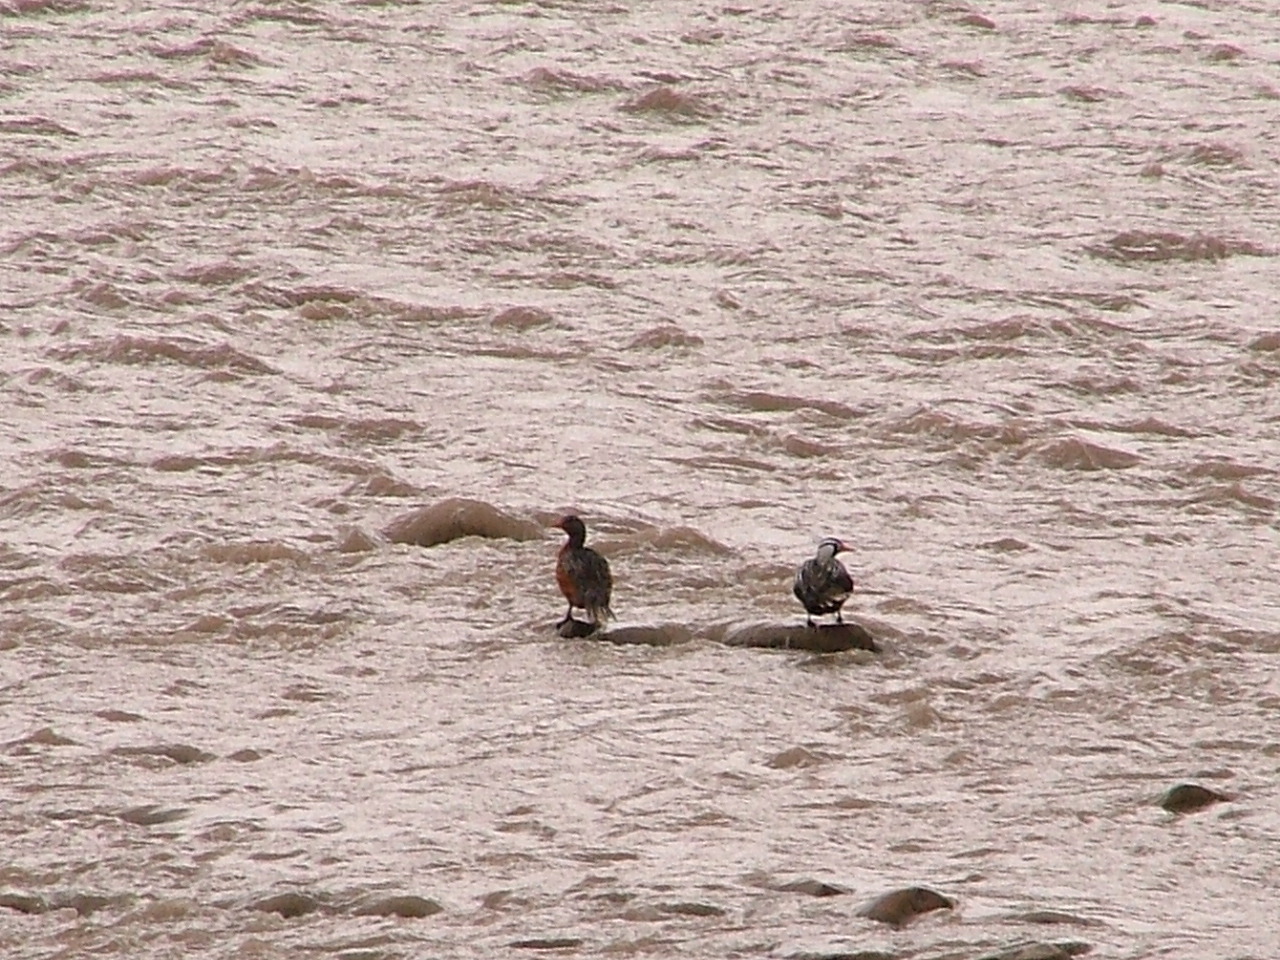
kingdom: Animalia
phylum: Chordata
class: Aves
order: Anseriformes
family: Anatidae
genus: Merganetta
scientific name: Merganetta armata
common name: Torrent duck
